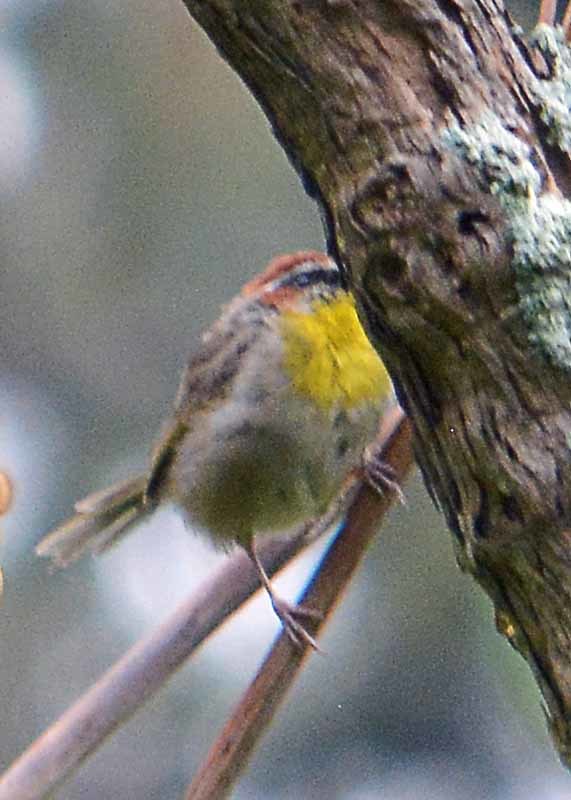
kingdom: Animalia
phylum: Chordata
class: Aves
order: Passeriformes
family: Parulidae
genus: Basileuterus
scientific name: Basileuterus rufifrons
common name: Rufous-capped warbler
